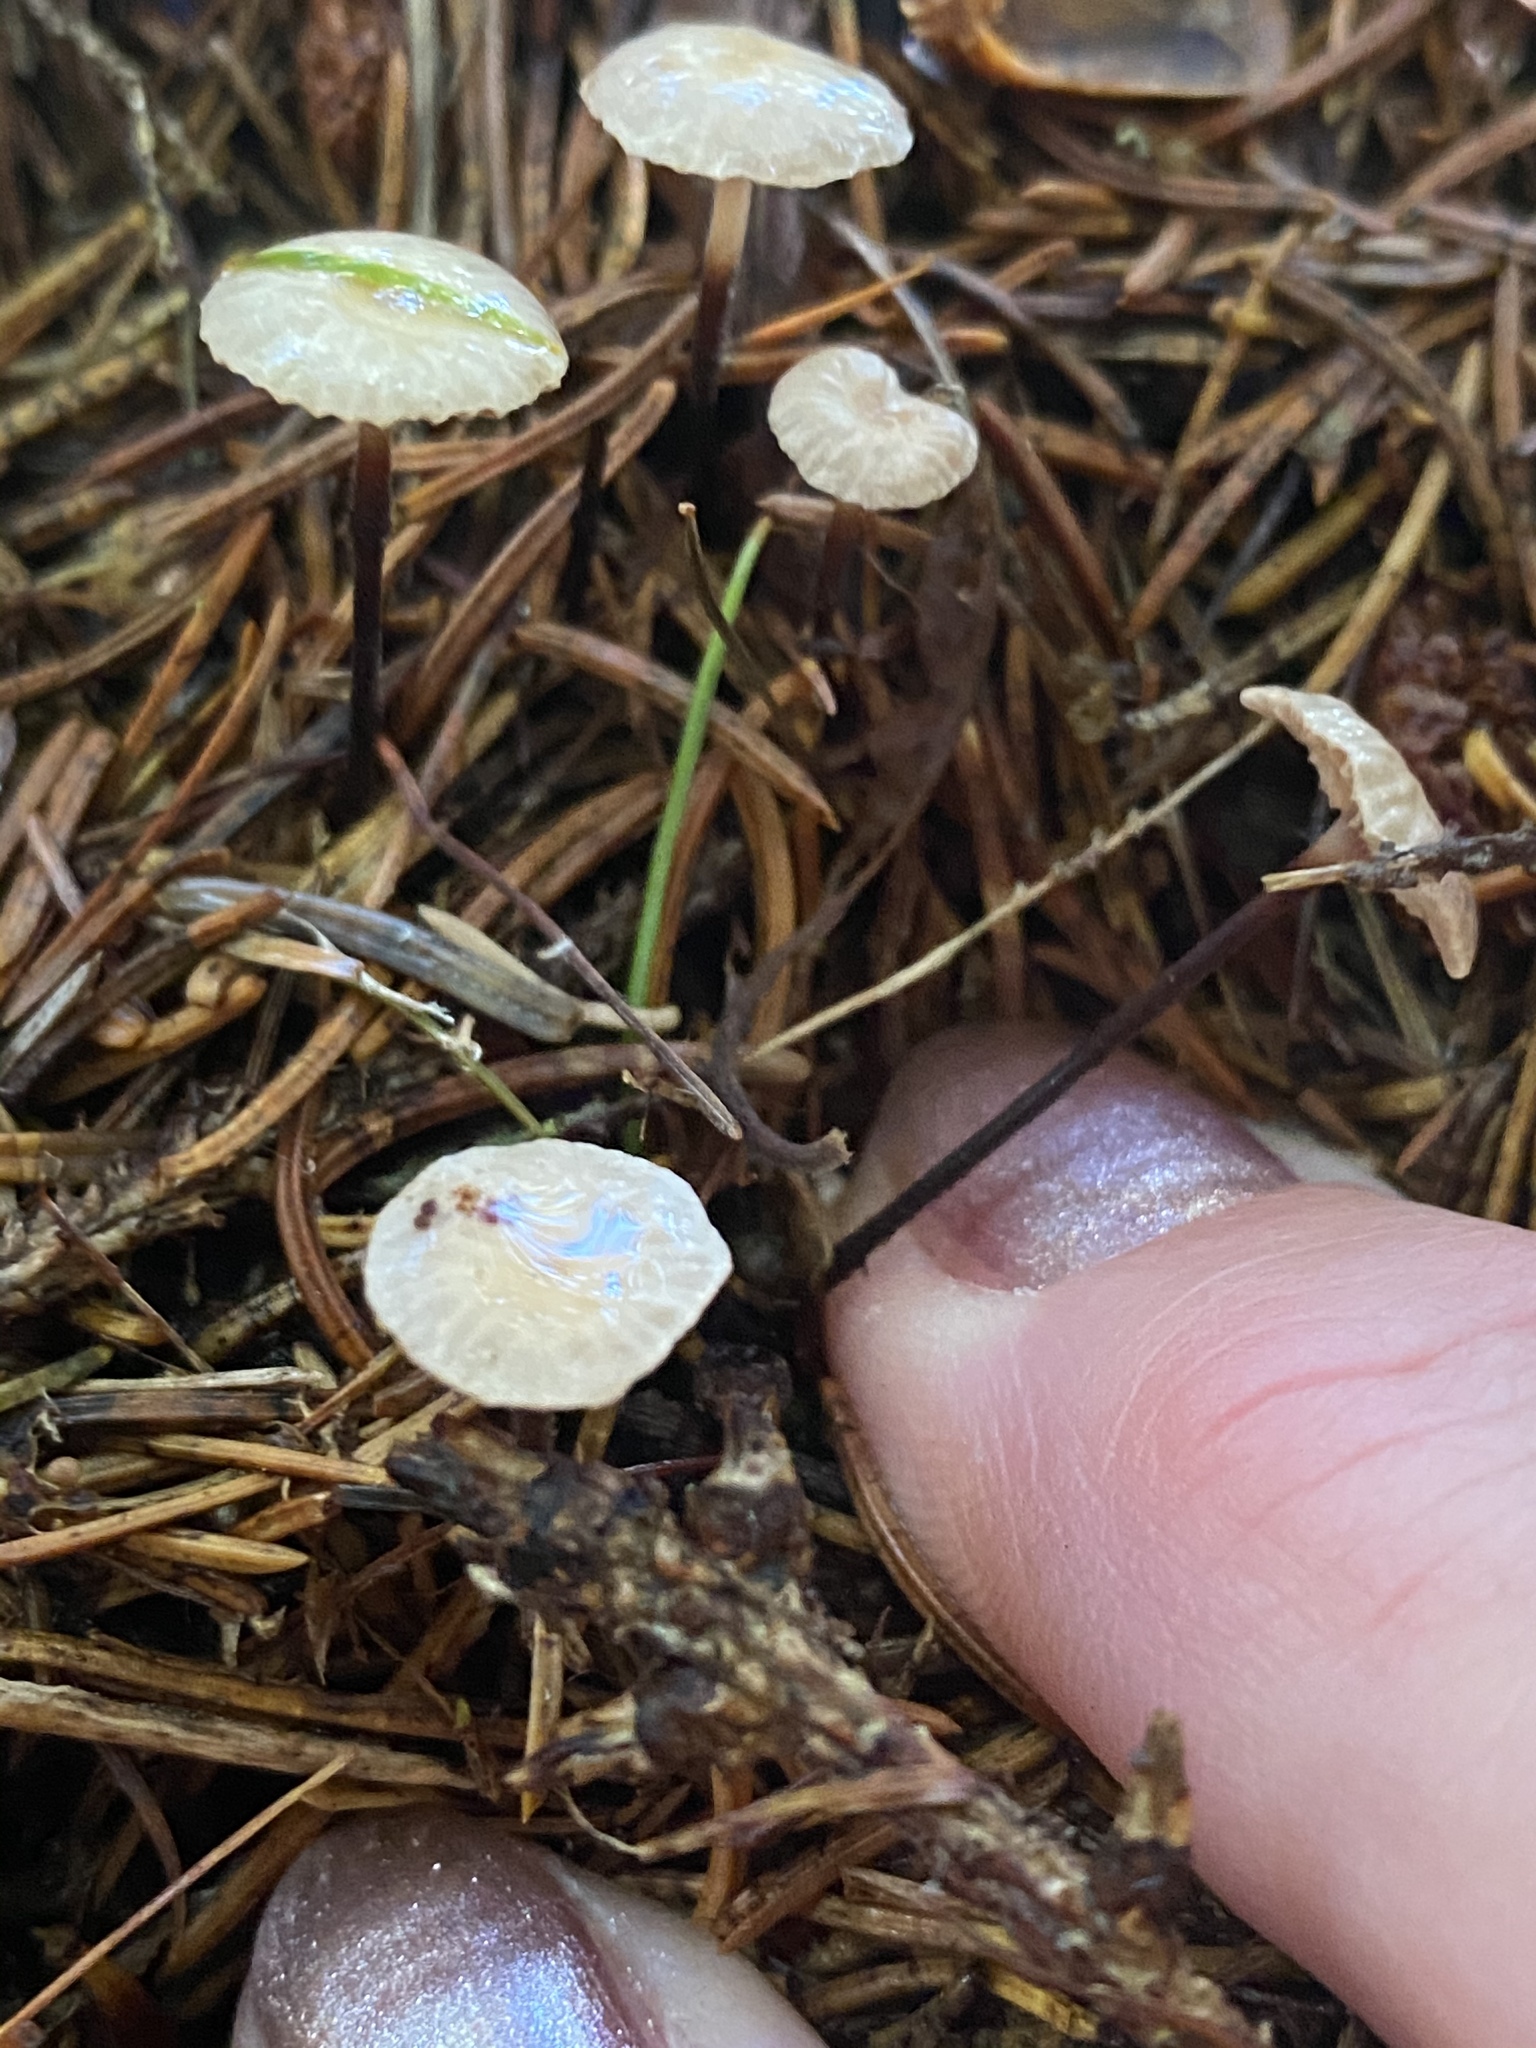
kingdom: Fungi
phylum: Basidiomycota
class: Agaricomycetes
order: Agaricales
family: Omphalotaceae
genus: Paragymnopus
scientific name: Paragymnopus perforans
